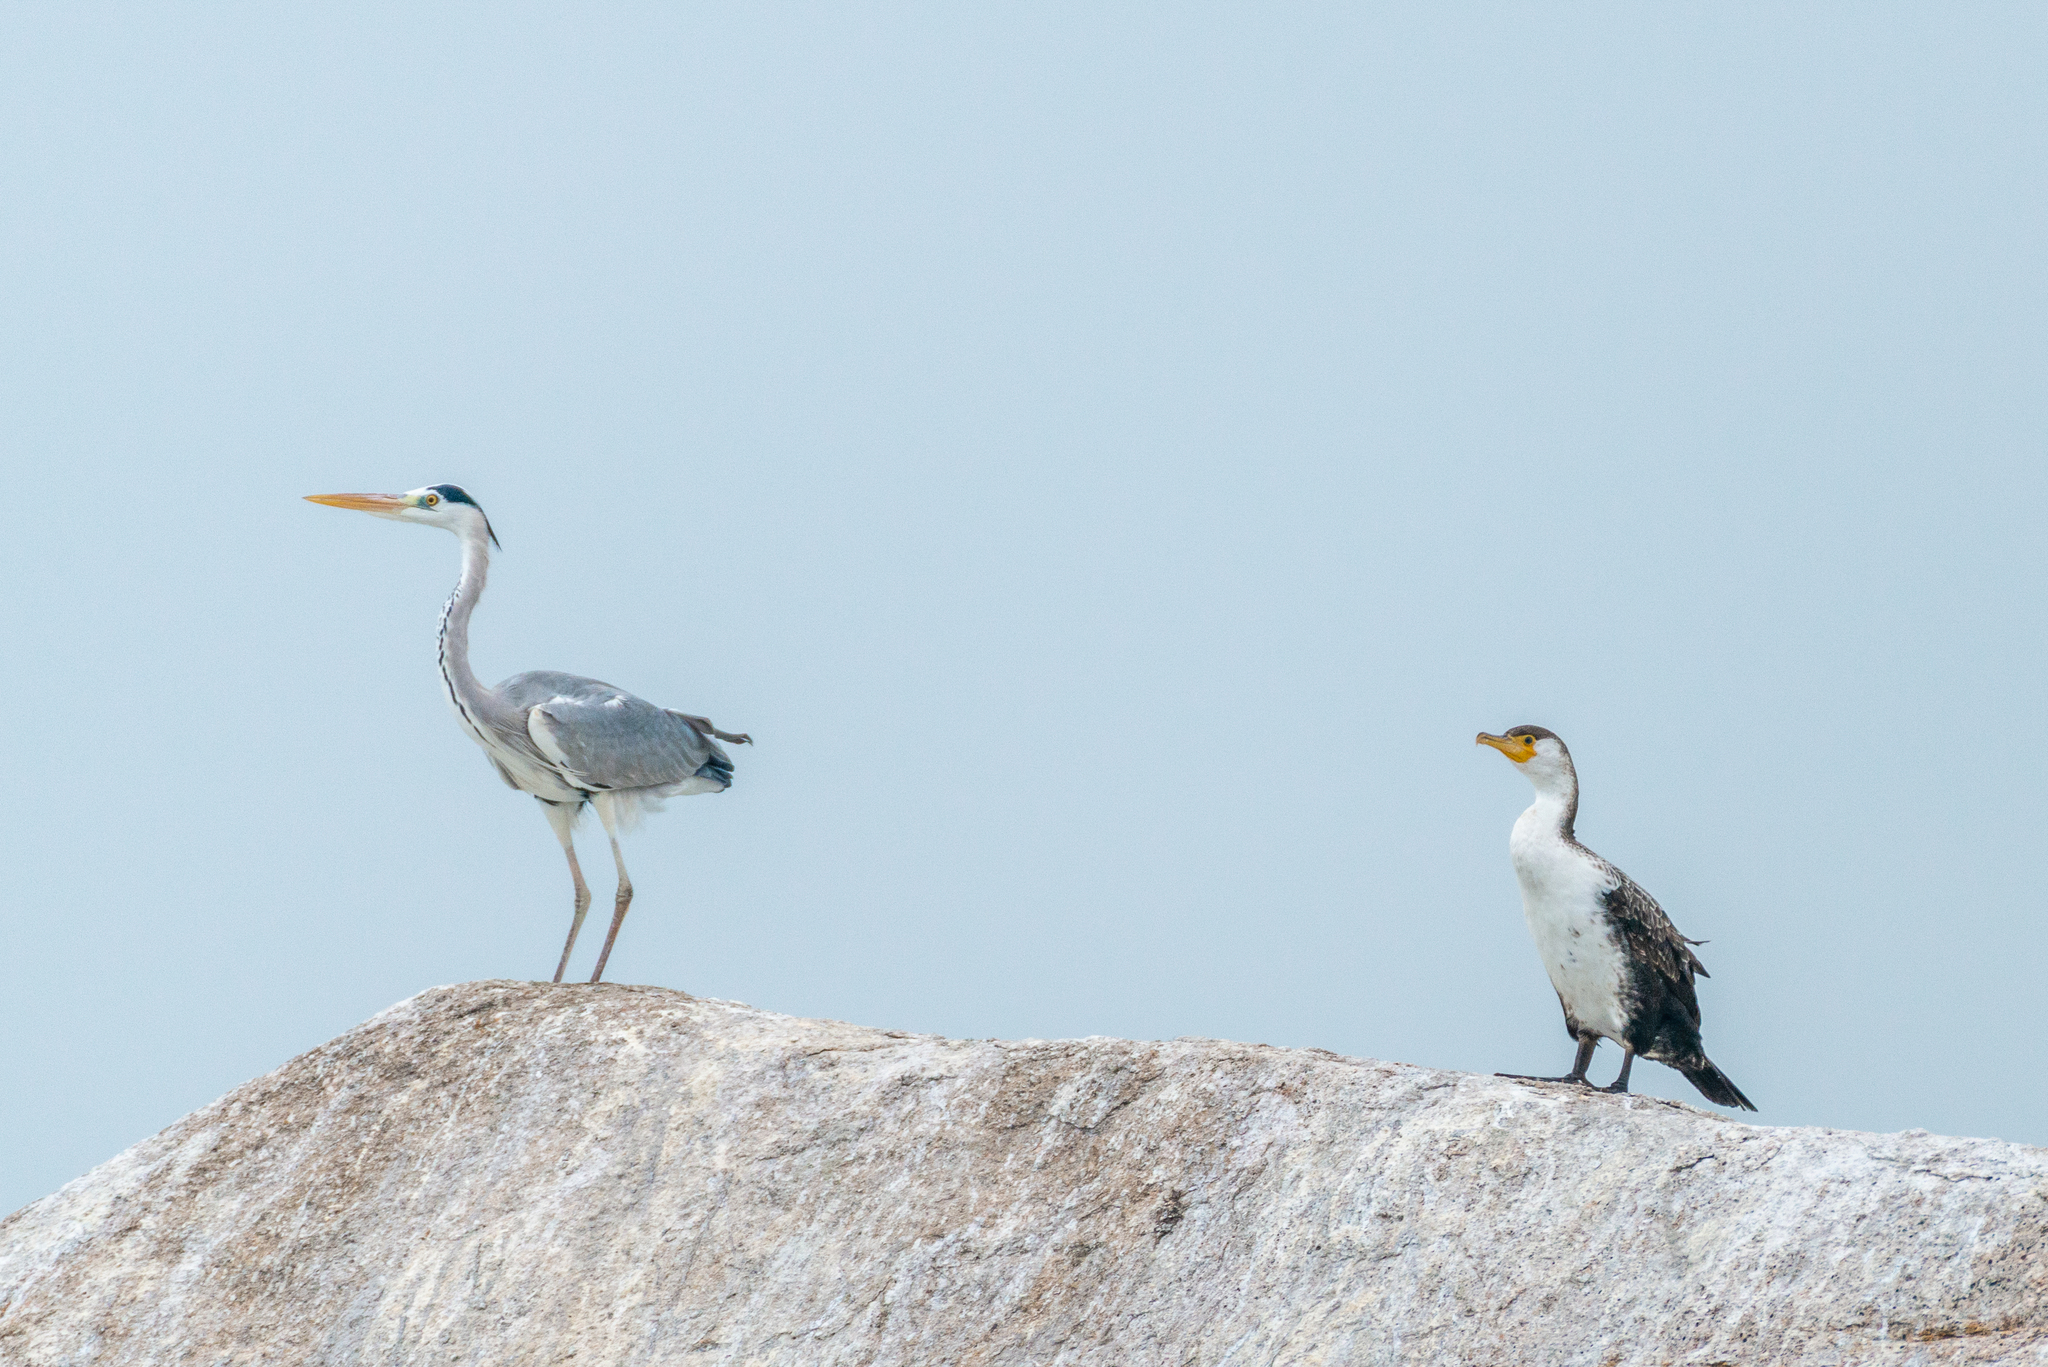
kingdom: Animalia
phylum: Chordata
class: Aves
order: Pelecaniformes
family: Ardeidae
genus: Ardea
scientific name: Ardea cinerea
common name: Grey heron
